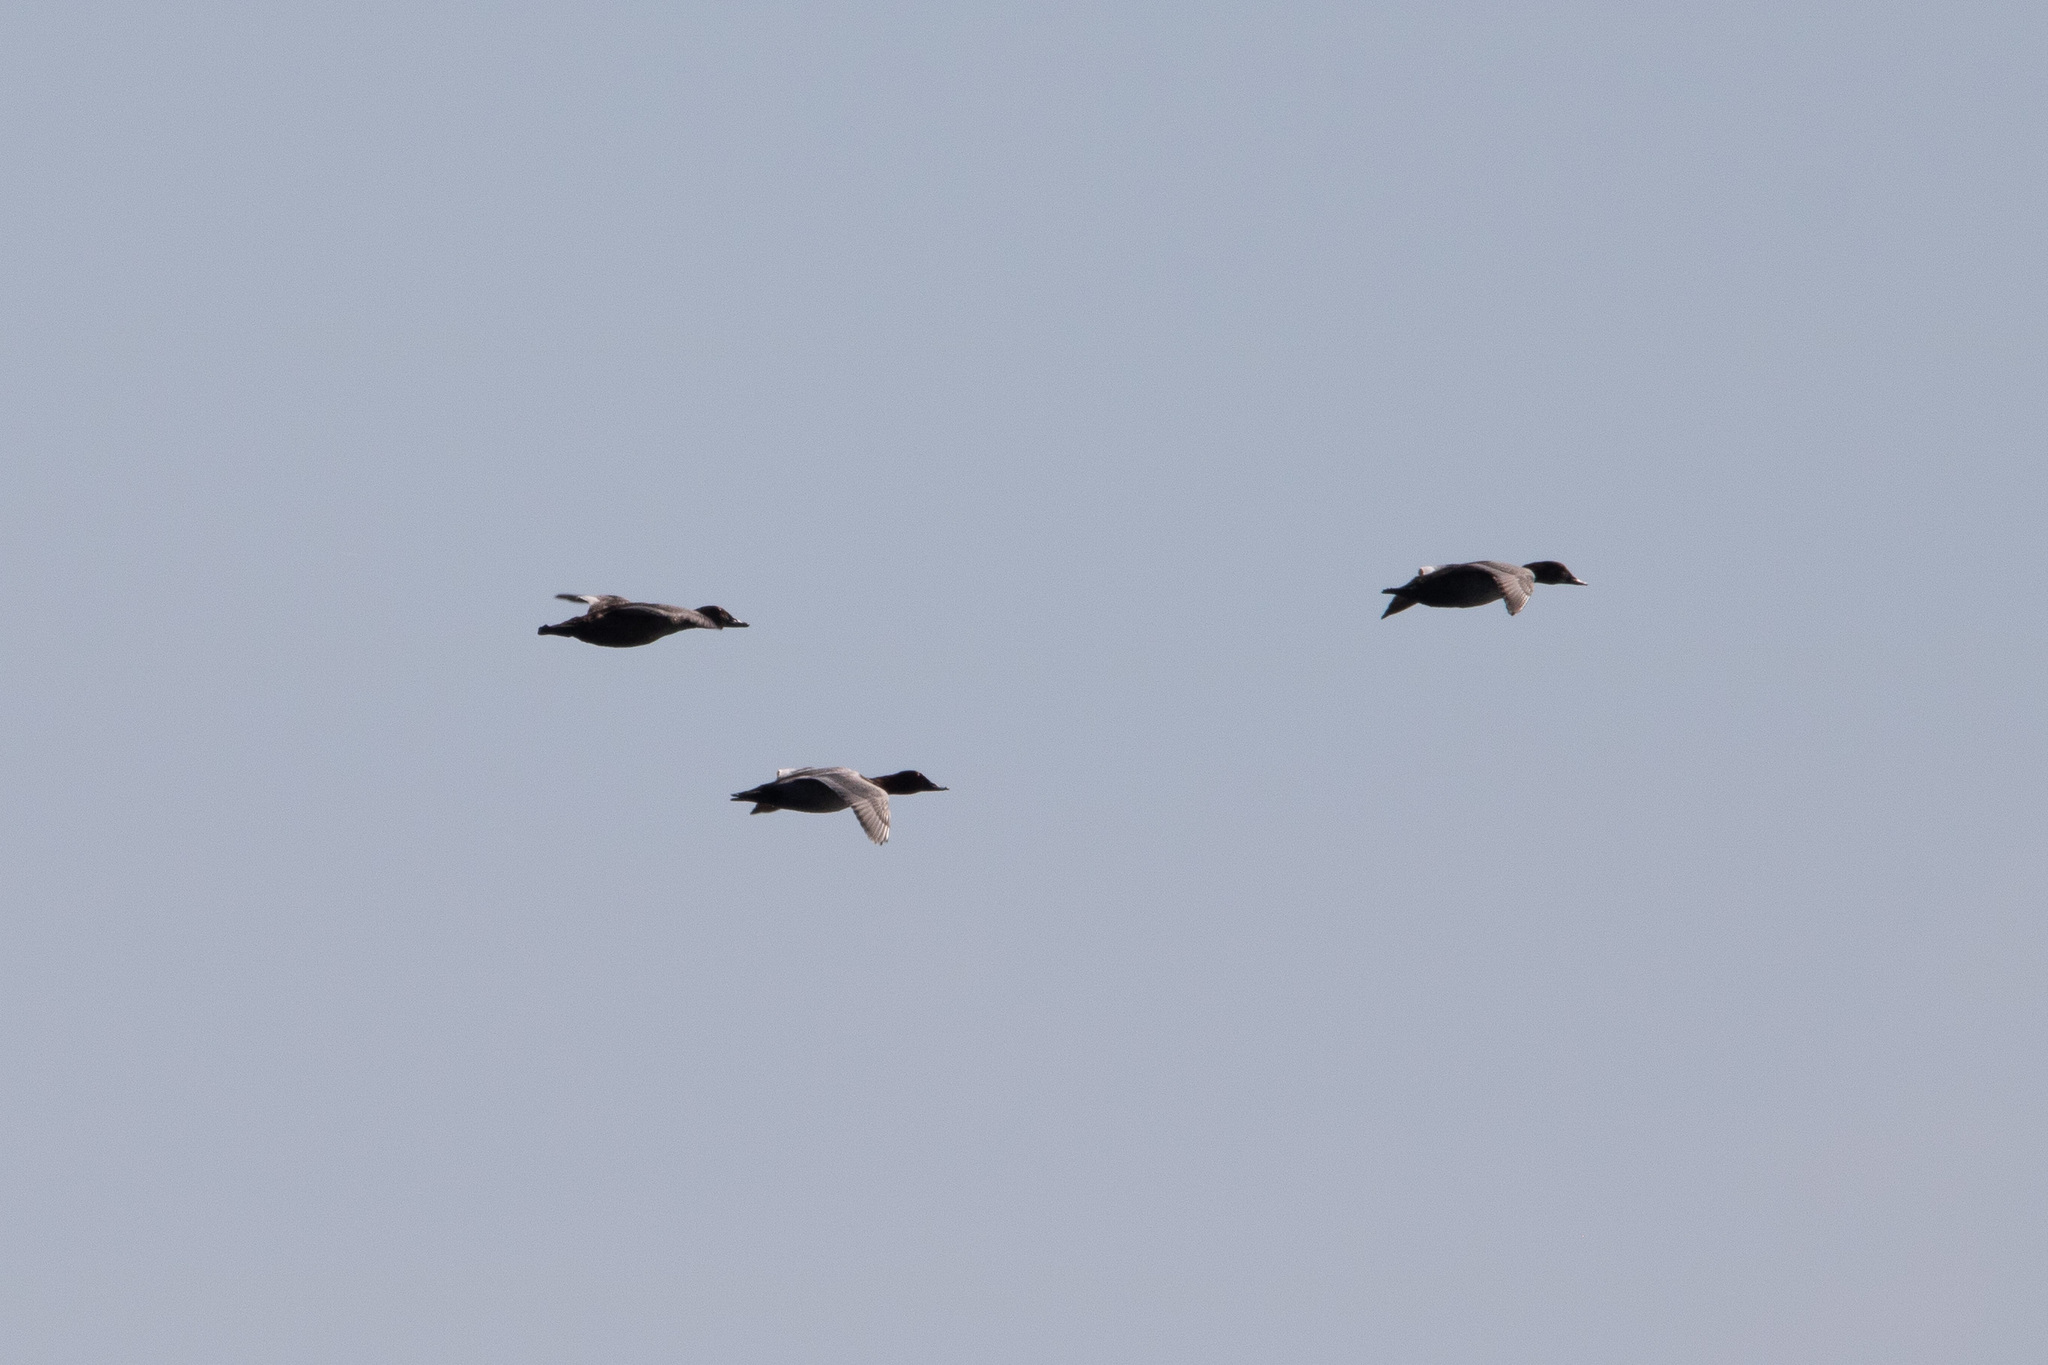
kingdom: Animalia
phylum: Chordata
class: Aves
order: Anseriformes
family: Anatidae
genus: Aythya
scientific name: Aythya ferina
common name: Common pochard
